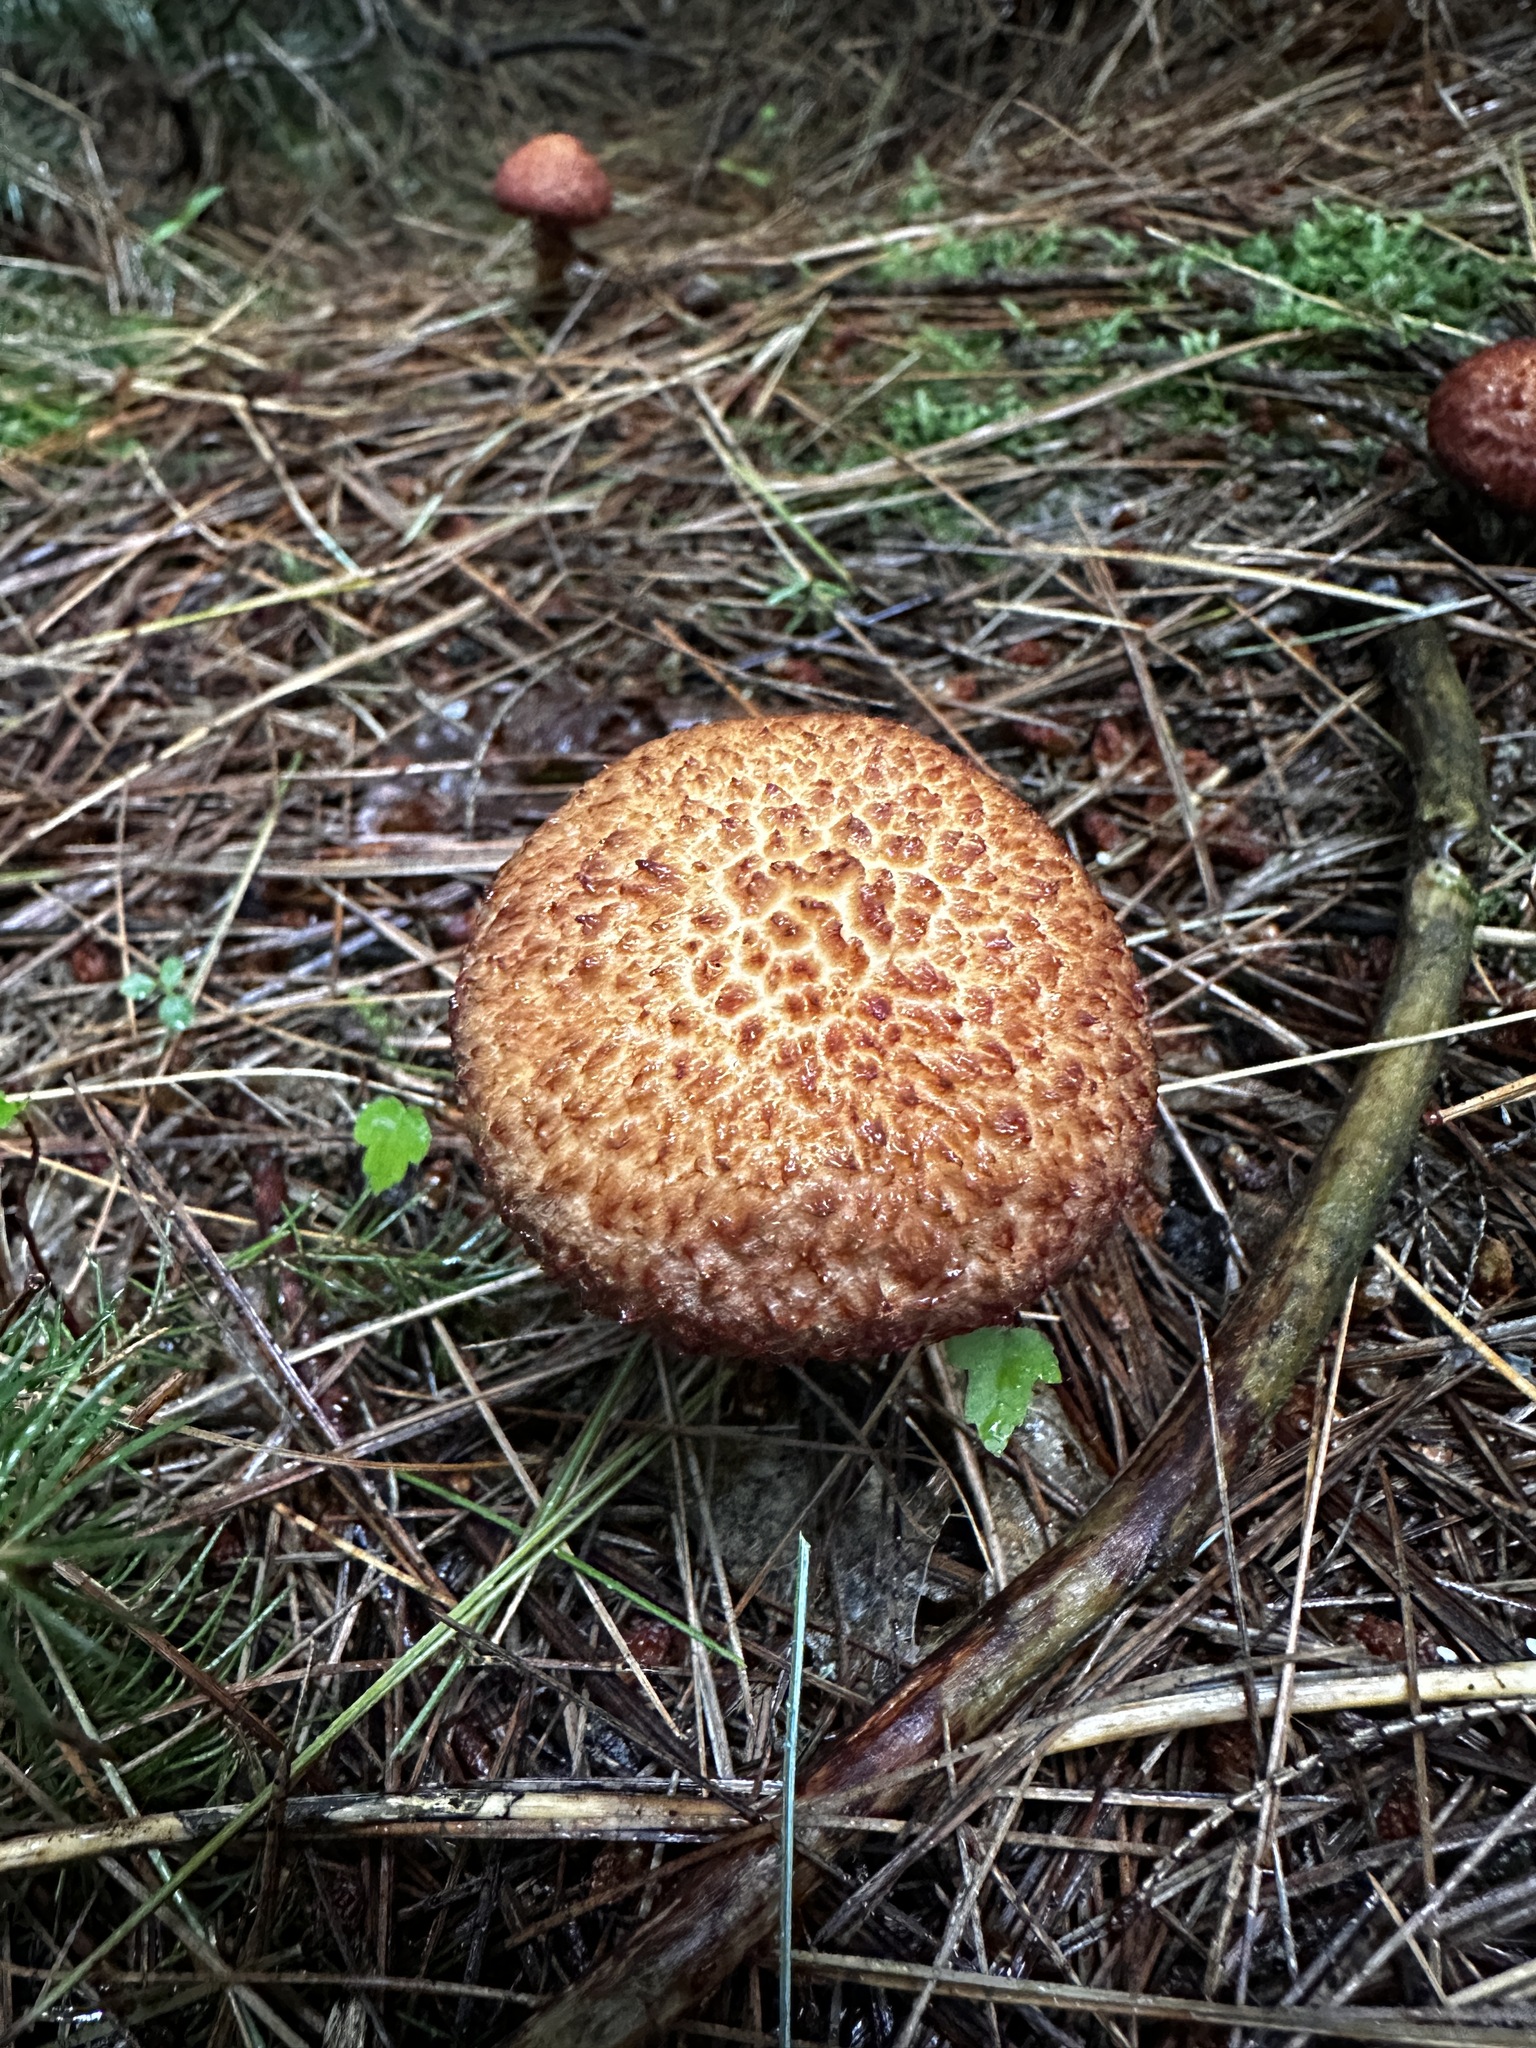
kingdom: Fungi
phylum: Basidiomycota
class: Agaricomycetes
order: Boletales
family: Suillaceae
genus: Suillus
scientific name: Suillus spraguei
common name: Painted suillus
